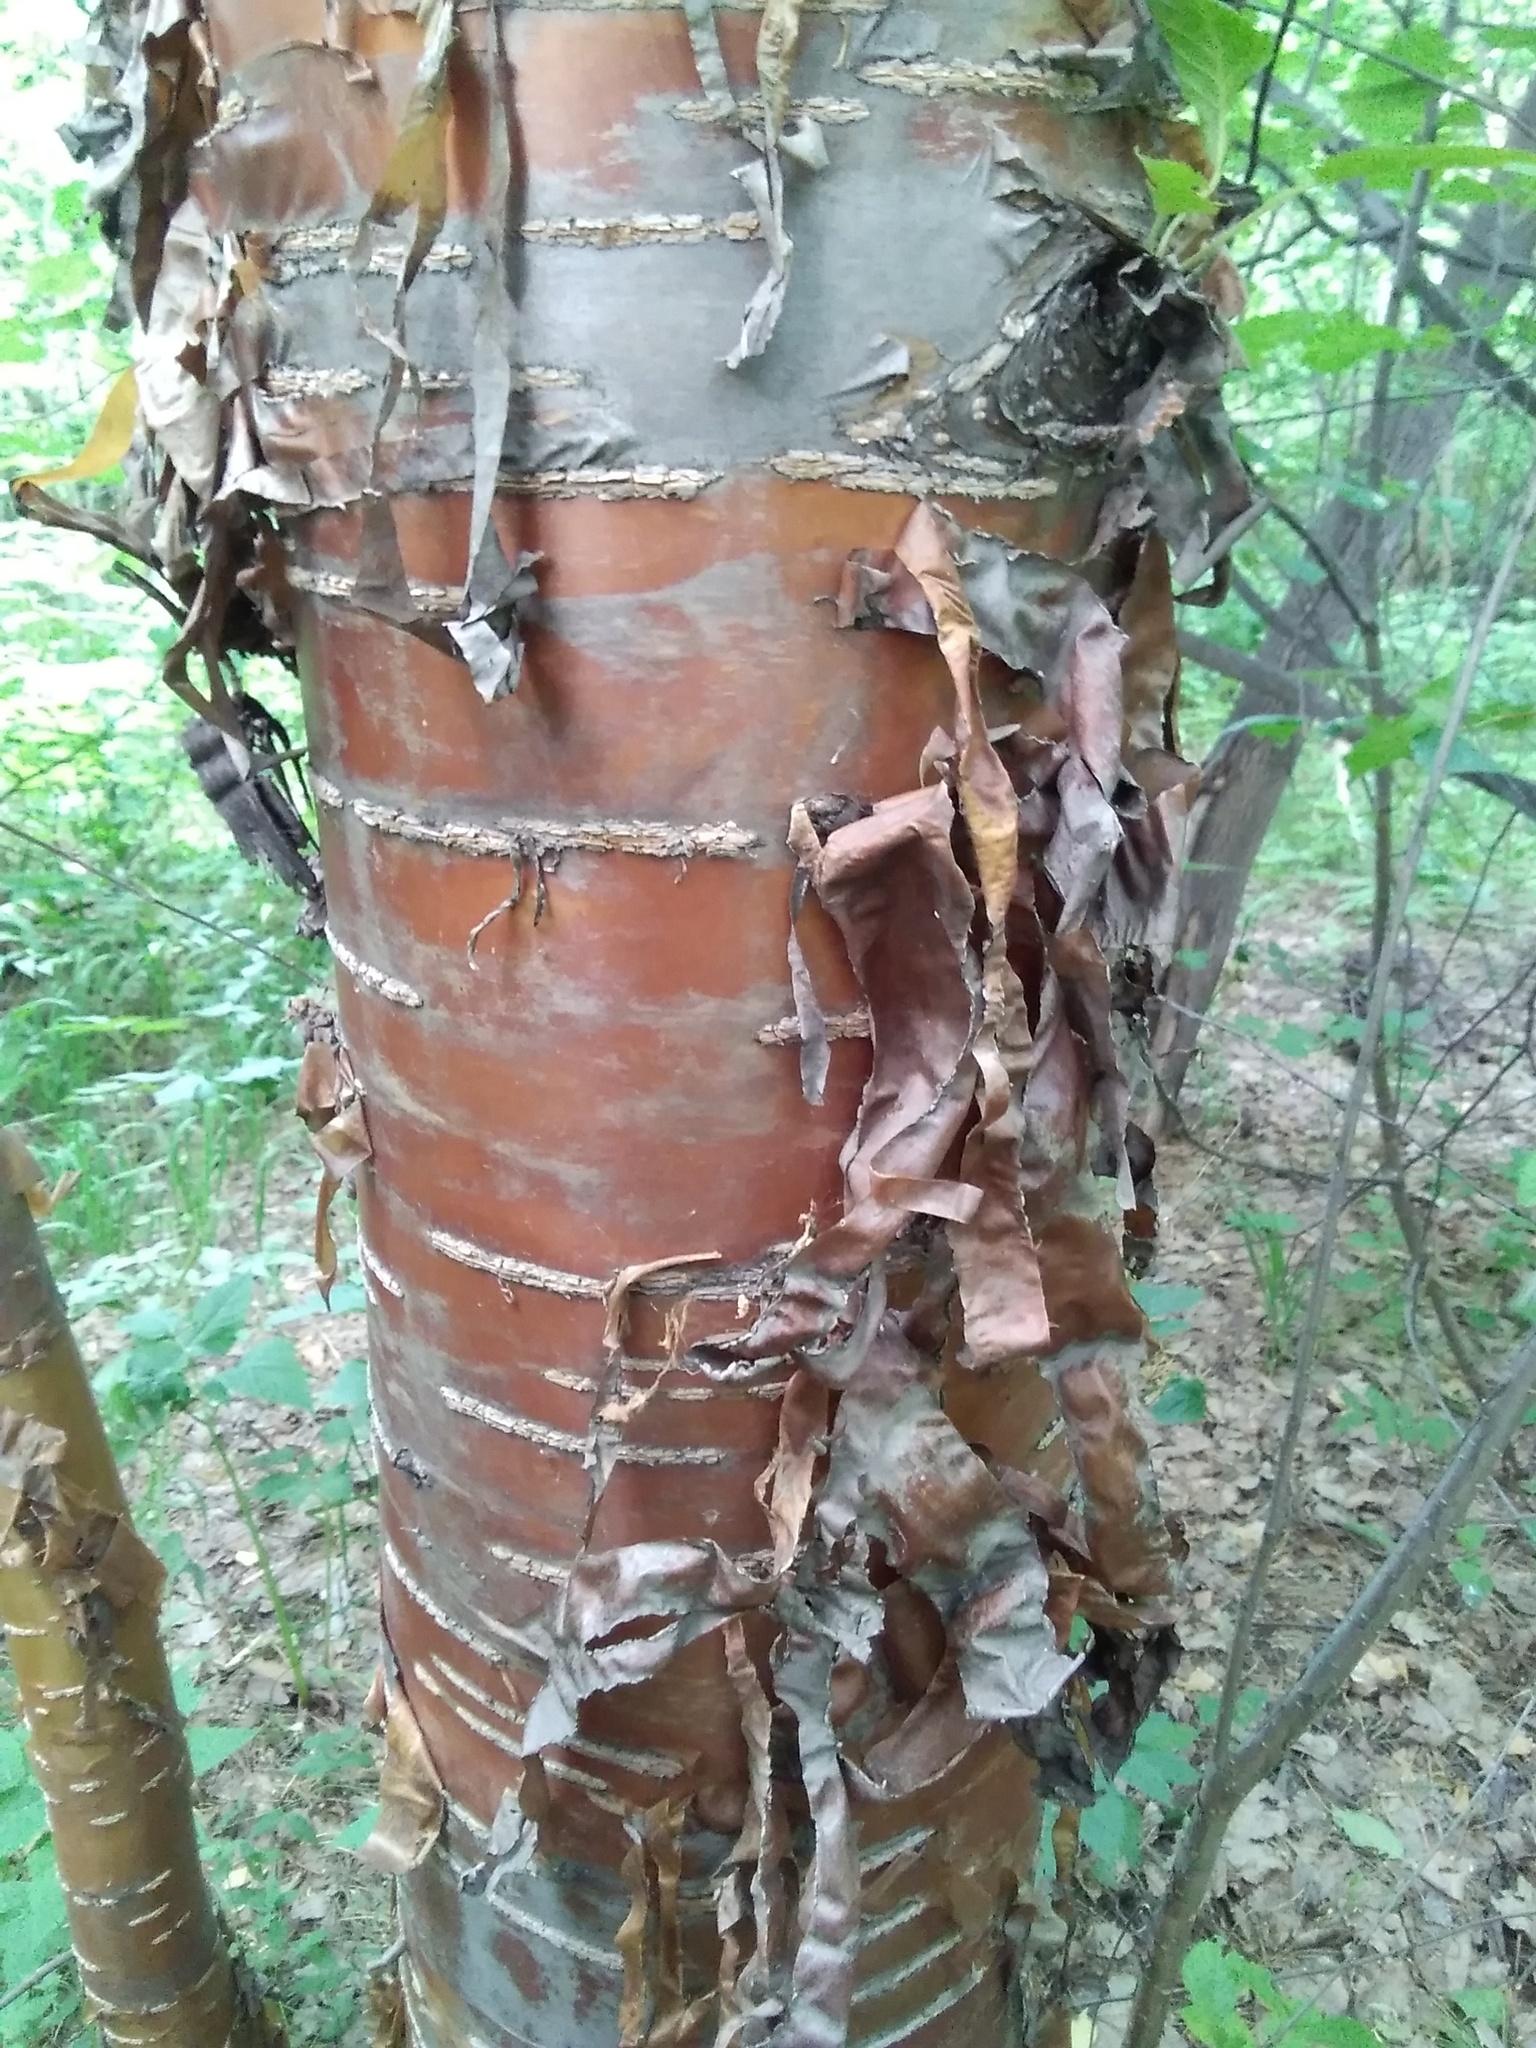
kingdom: Plantae
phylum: Tracheophyta
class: Magnoliopsida
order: Rosales
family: Rosaceae
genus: Prunus
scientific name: Prunus glandulifolia
